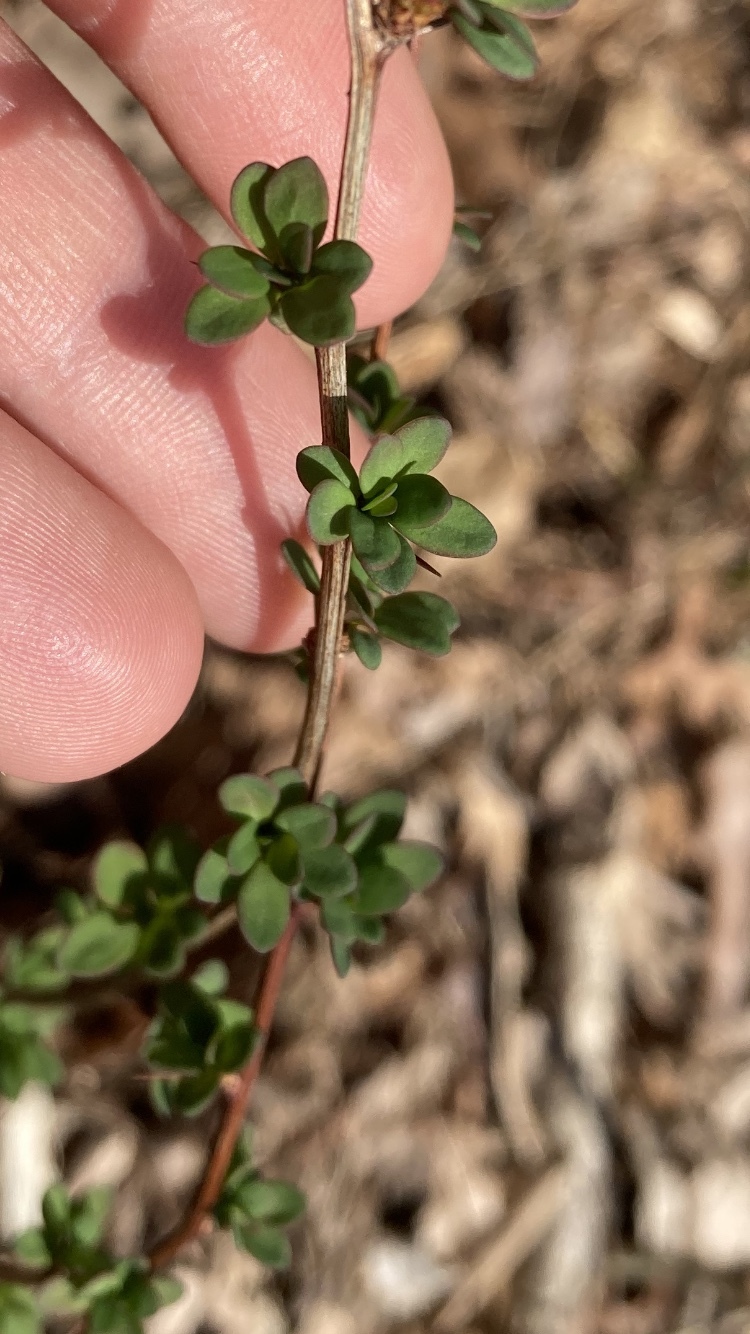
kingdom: Plantae
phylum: Tracheophyta
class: Magnoliopsida
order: Ranunculales
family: Berberidaceae
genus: Berberis
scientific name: Berberis thunbergii
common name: Japanese barberry
